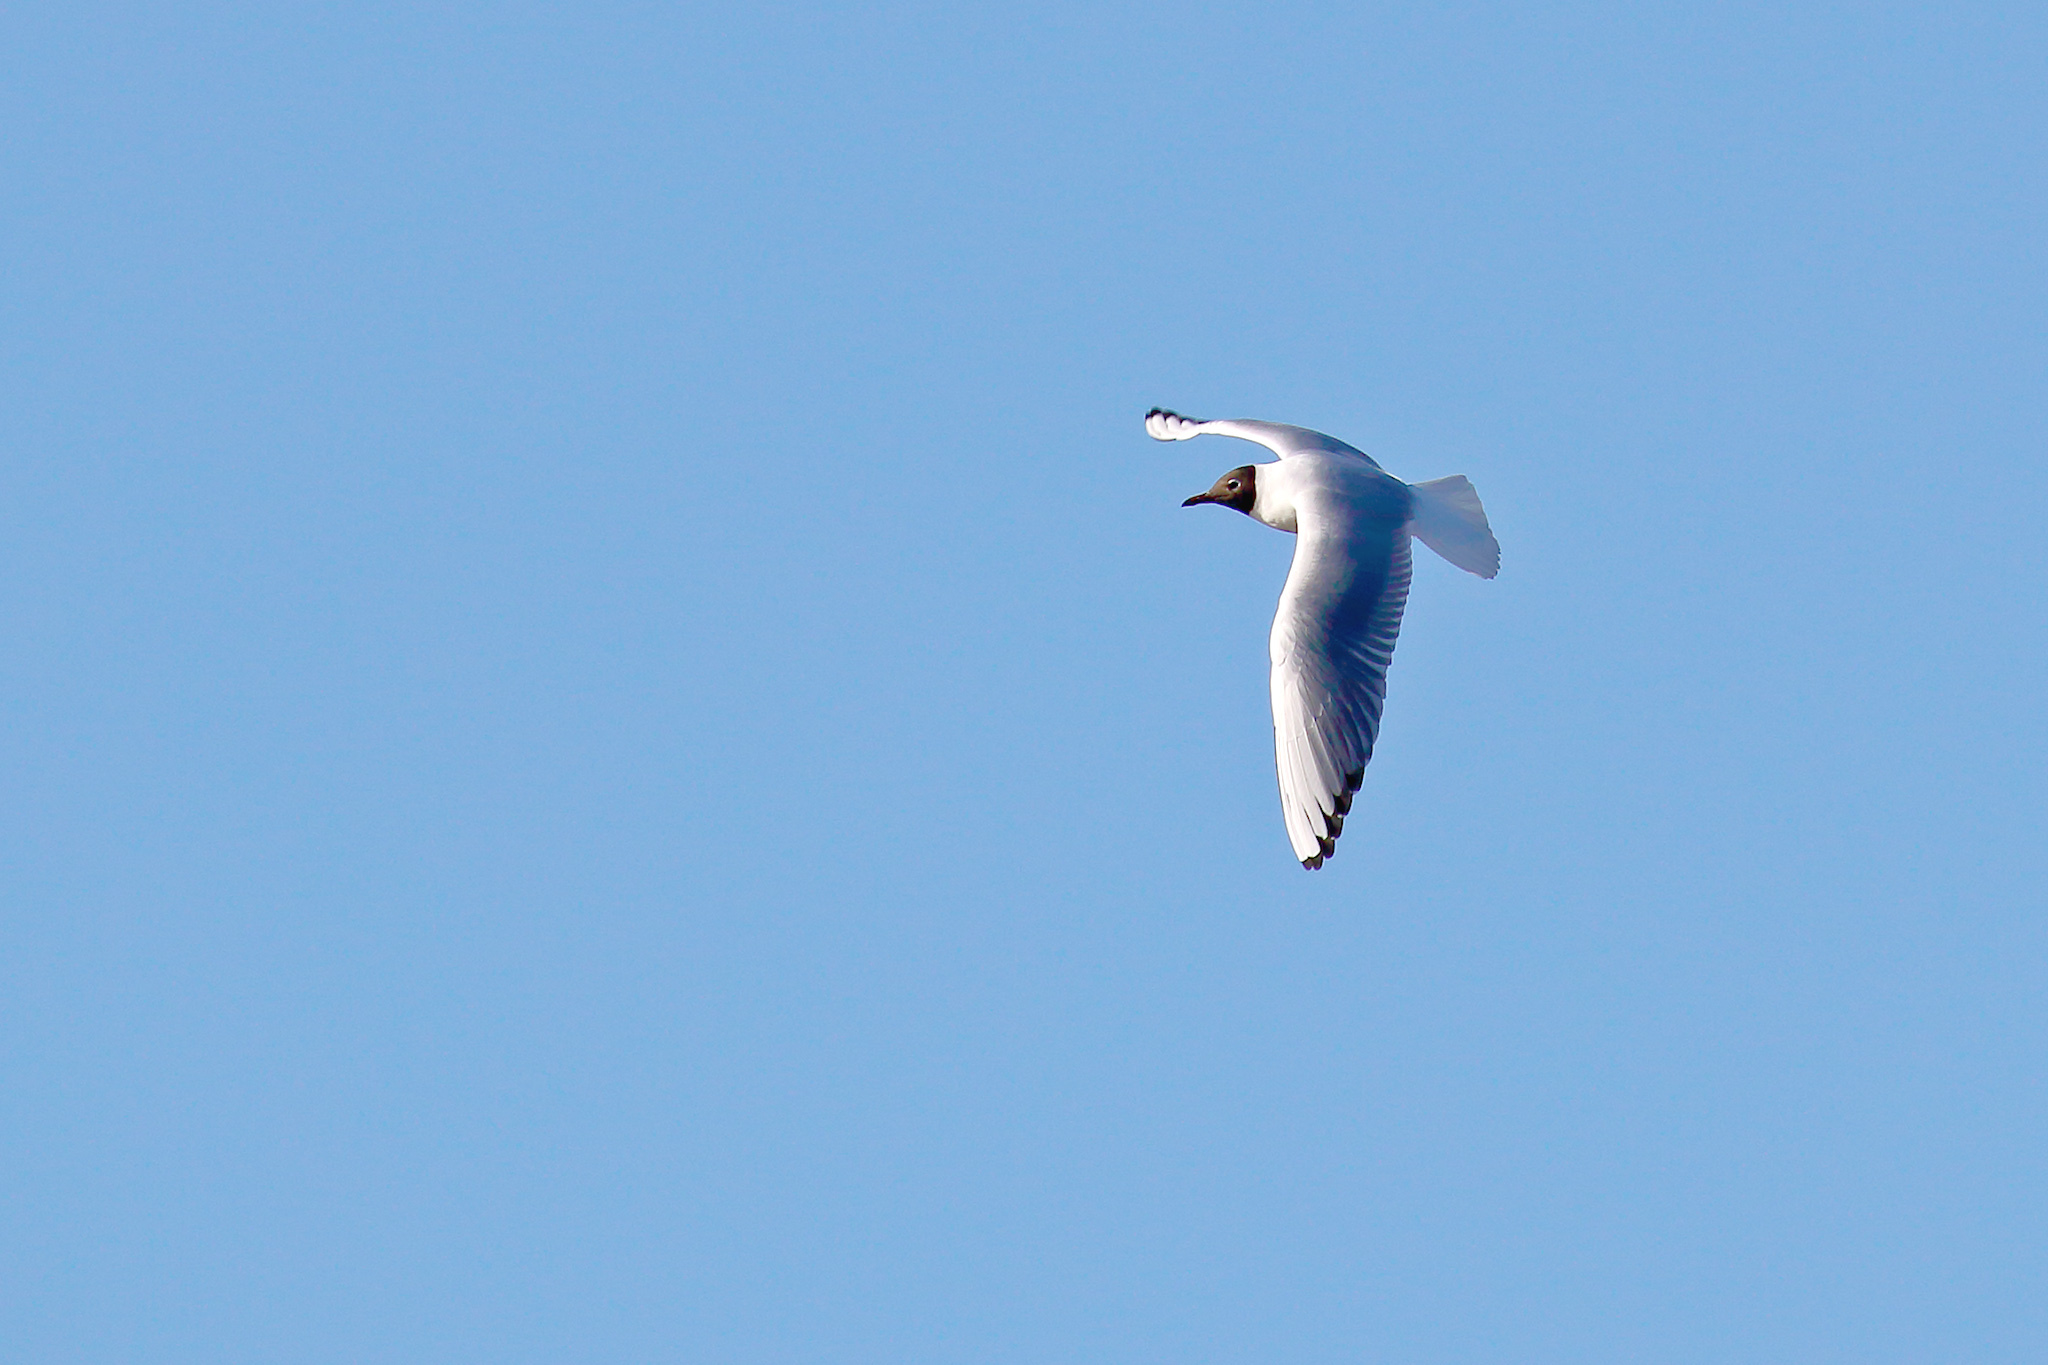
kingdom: Animalia
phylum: Chordata
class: Aves
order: Charadriiformes
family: Laridae
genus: Chroicocephalus
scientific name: Chroicocephalus ridibundus
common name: Black-headed gull
